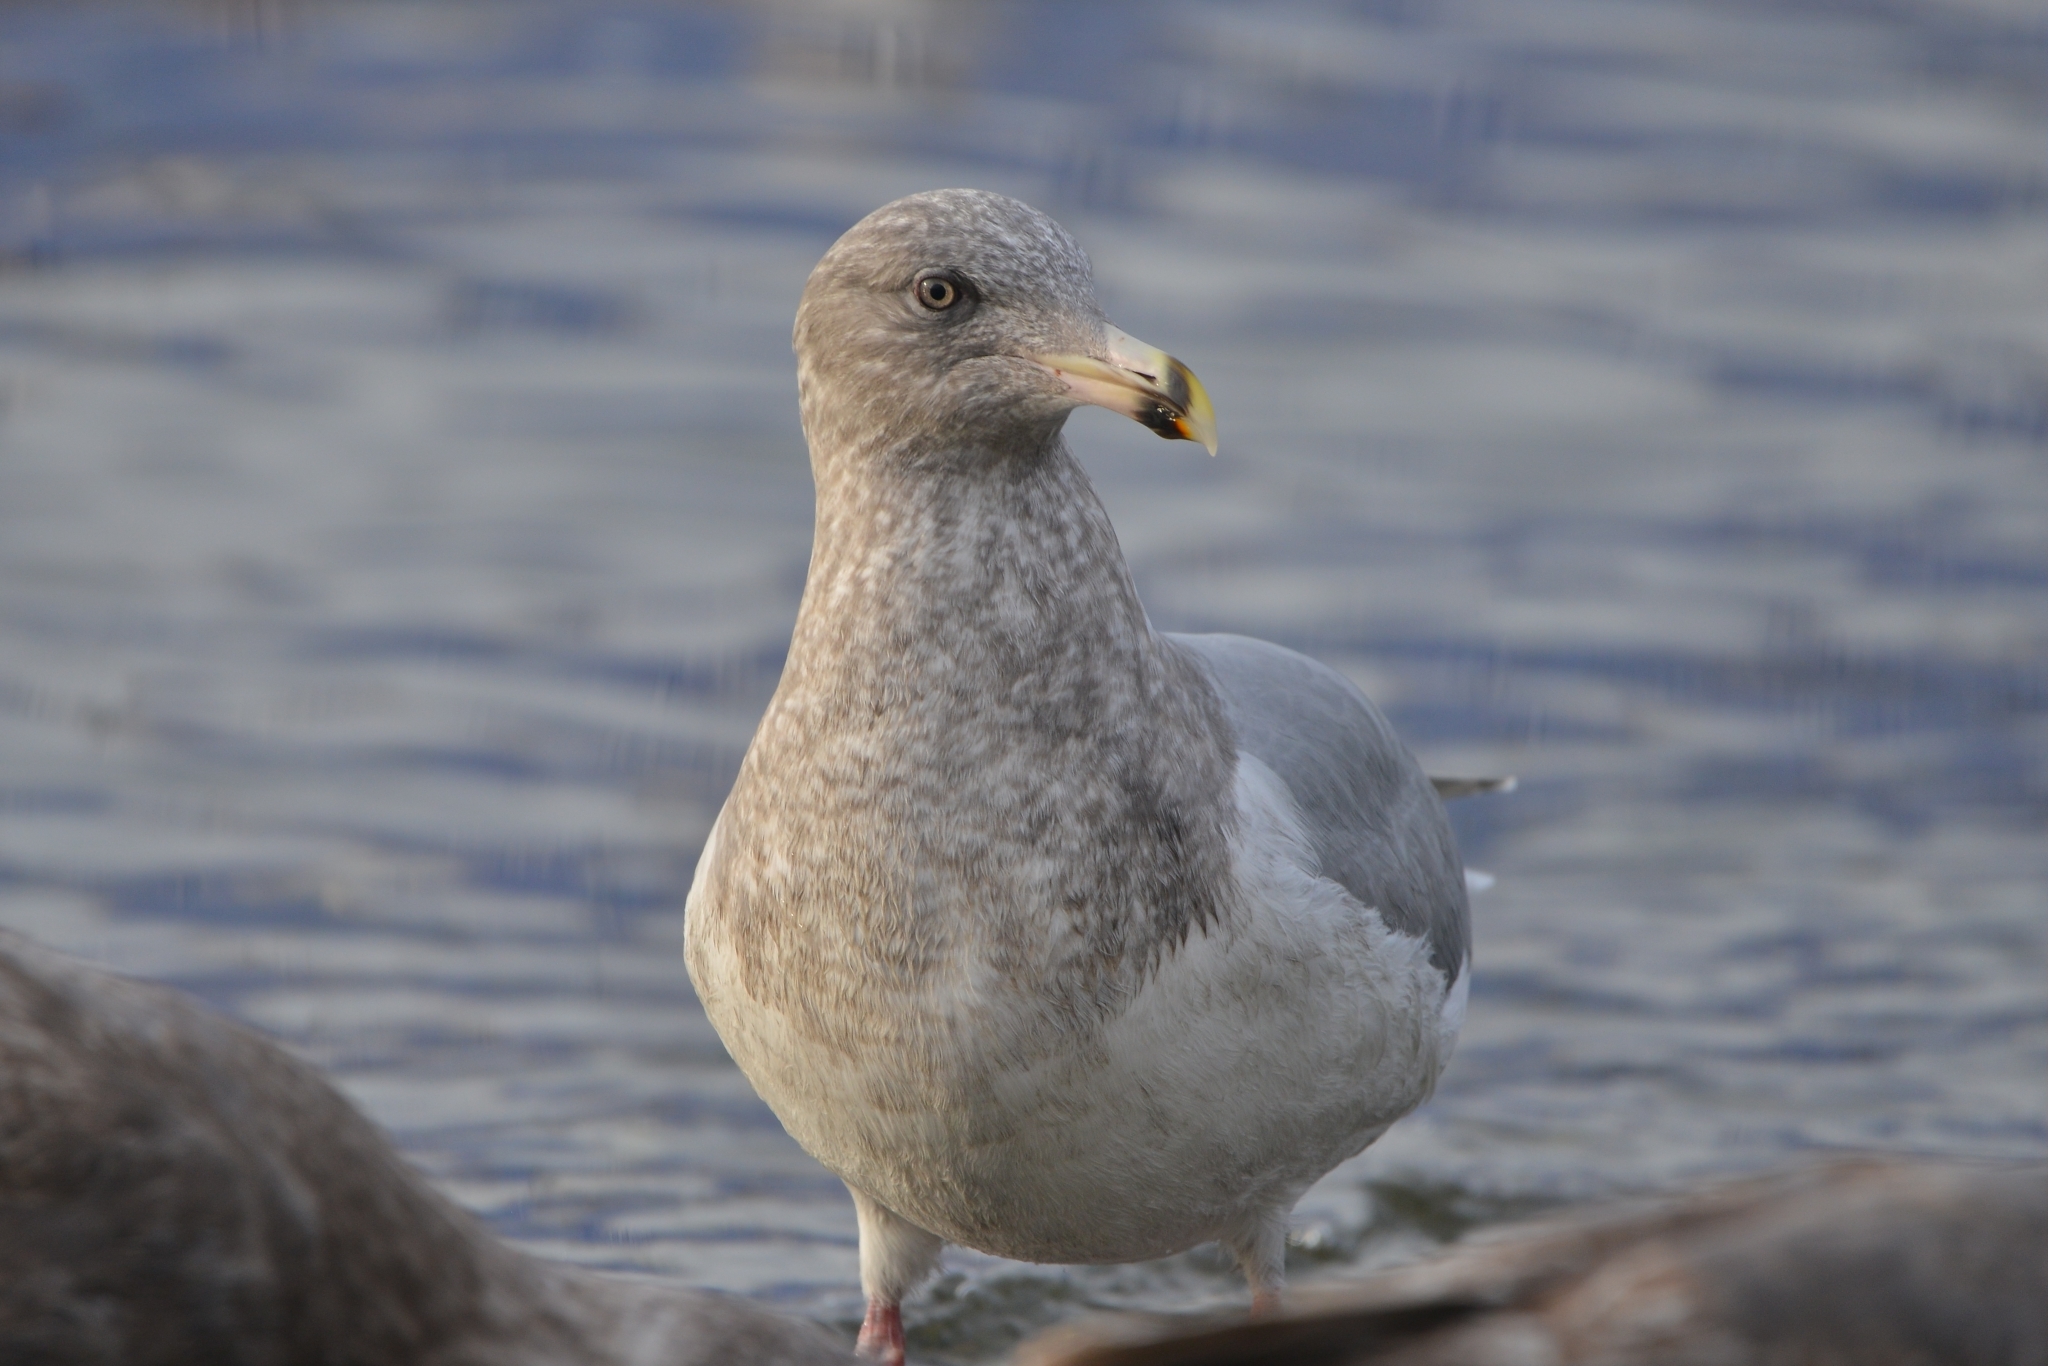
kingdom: Animalia
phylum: Chordata
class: Aves
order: Charadriiformes
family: Laridae
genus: Larus
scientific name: Larus glaucescens
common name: Glaucous-winged gull
